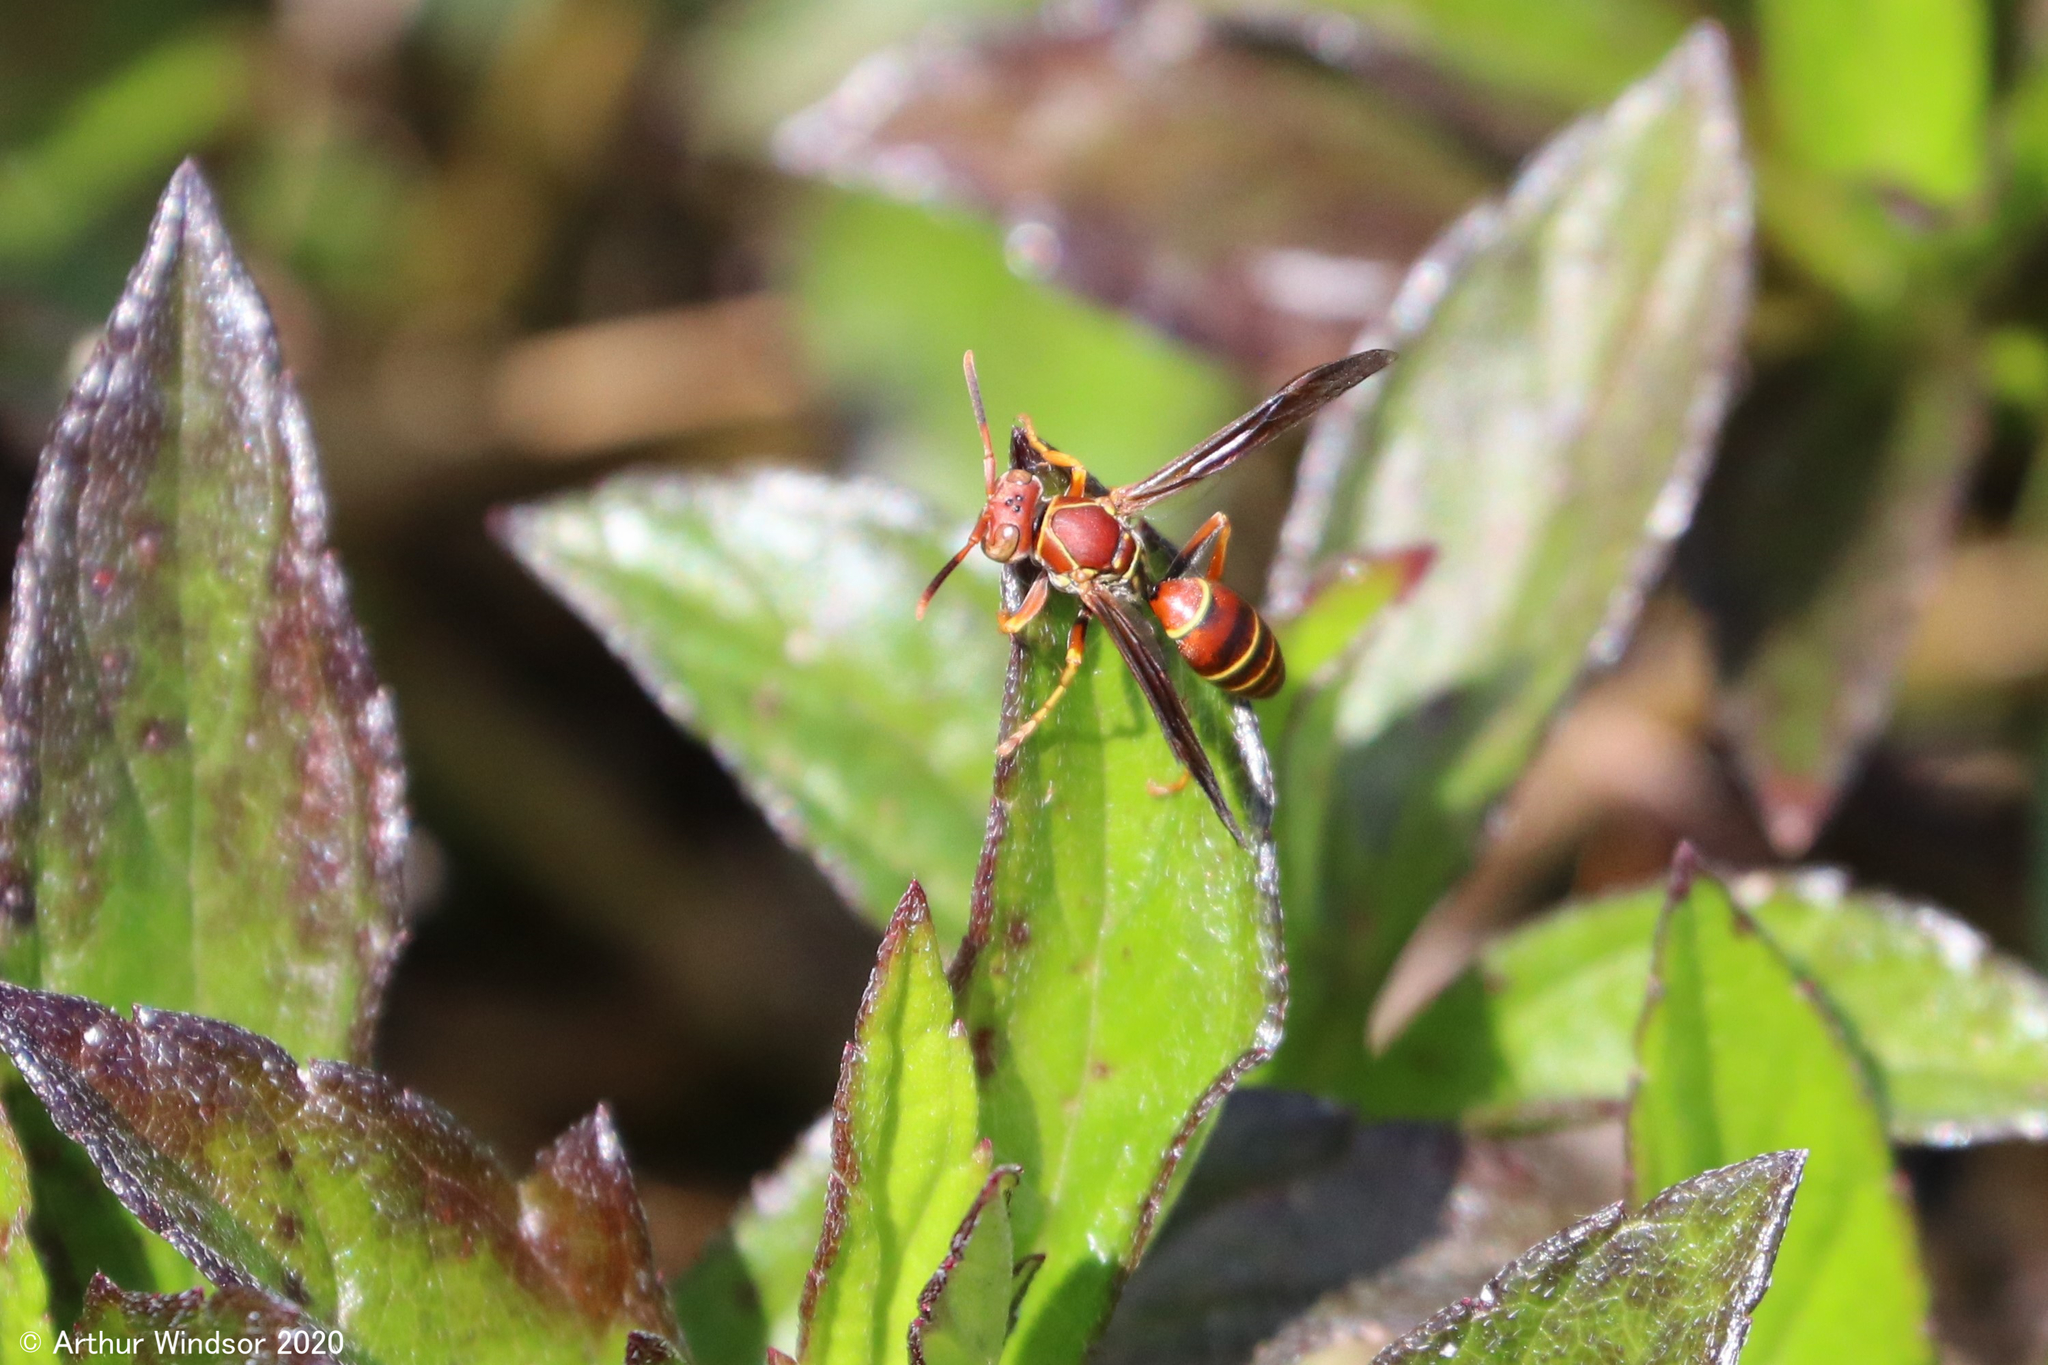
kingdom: Animalia
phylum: Arthropoda
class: Insecta
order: Hymenoptera
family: Eumenidae
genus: Polistes
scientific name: Polistes dorsalis
